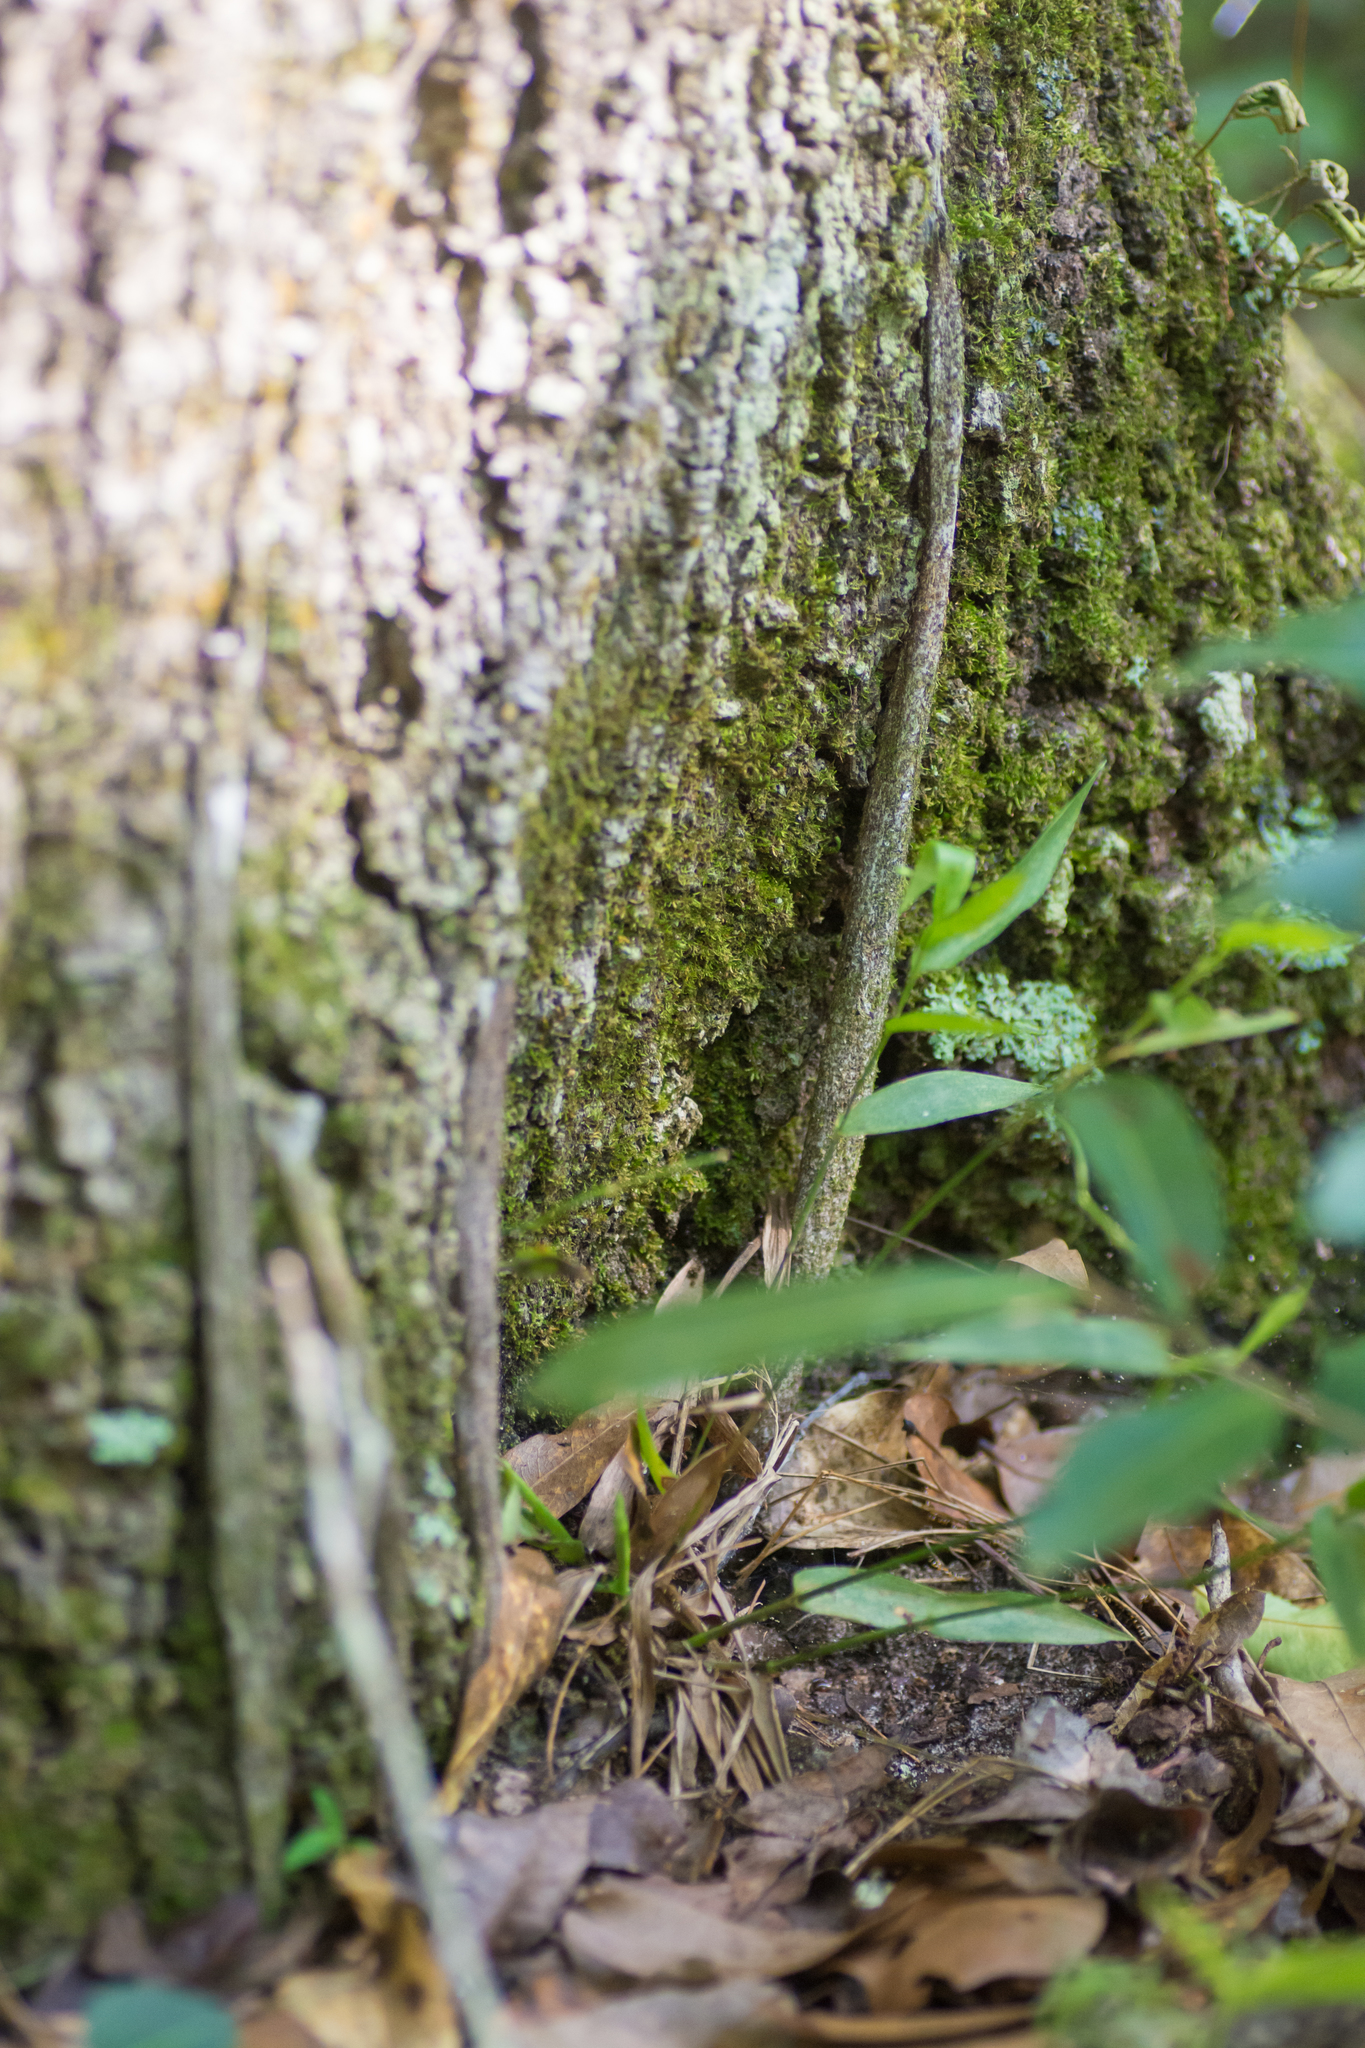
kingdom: Animalia
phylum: Arthropoda
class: Arachnida
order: Araneae
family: Atypidae
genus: Sphodros
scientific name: Sphodros abboti
